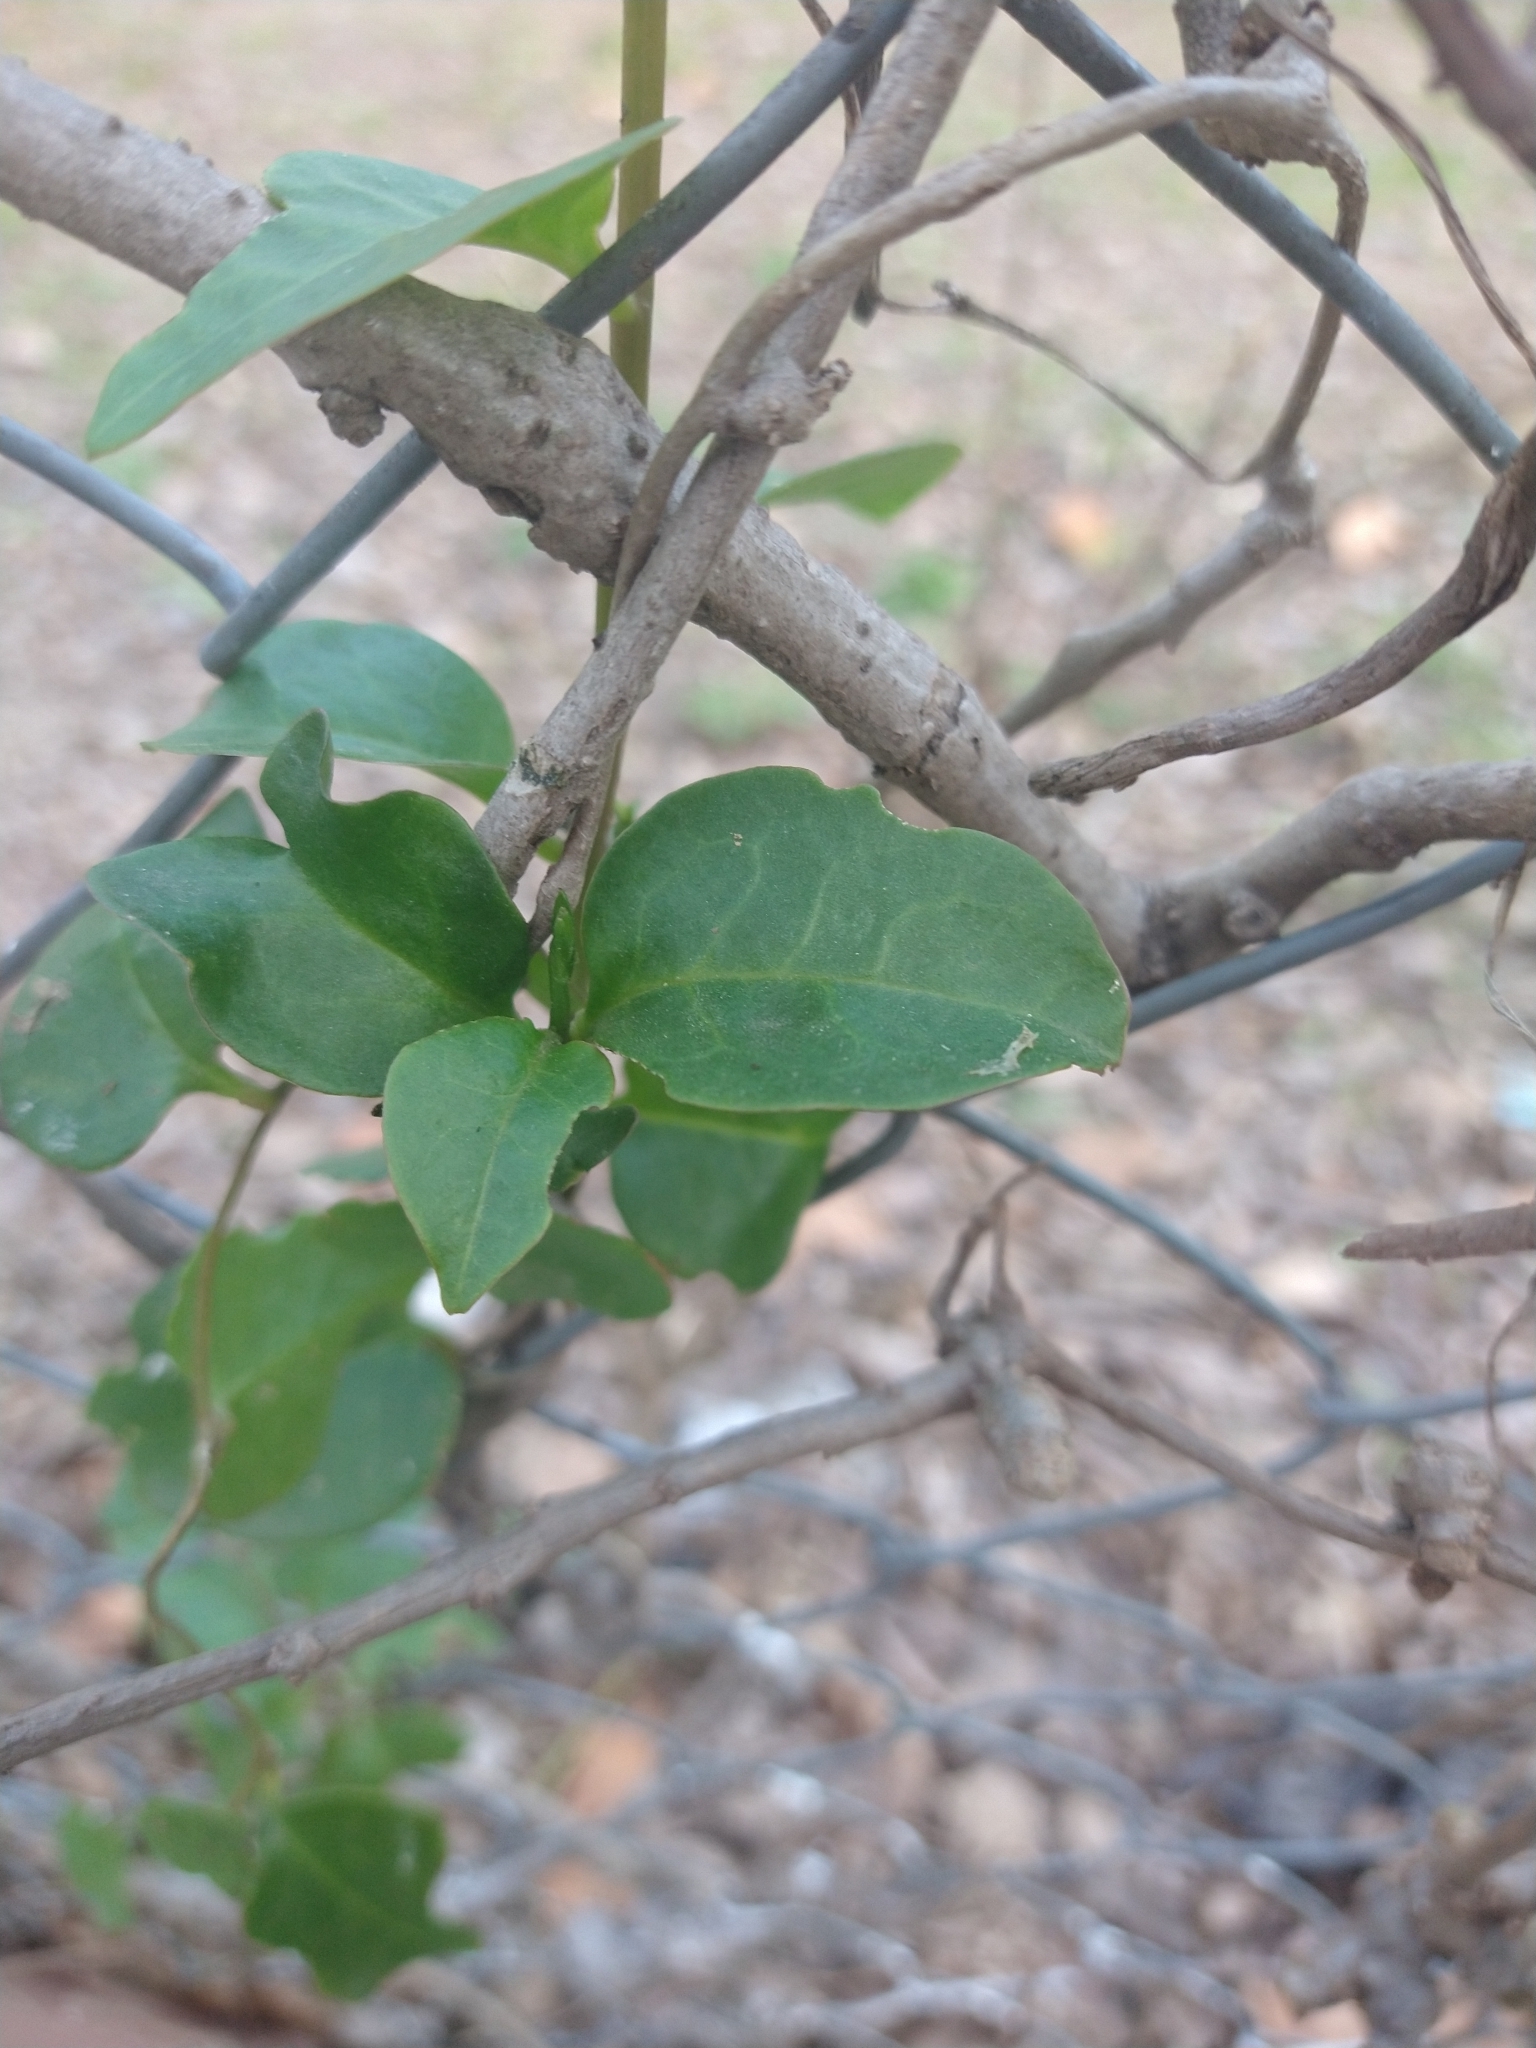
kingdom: Plantae
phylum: Tracheophyta
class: Magnoliopsida
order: Caryophyllales
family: Basellaceae
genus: Anredera
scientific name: Anredera cordifolia
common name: Heartleaf madeiravine
